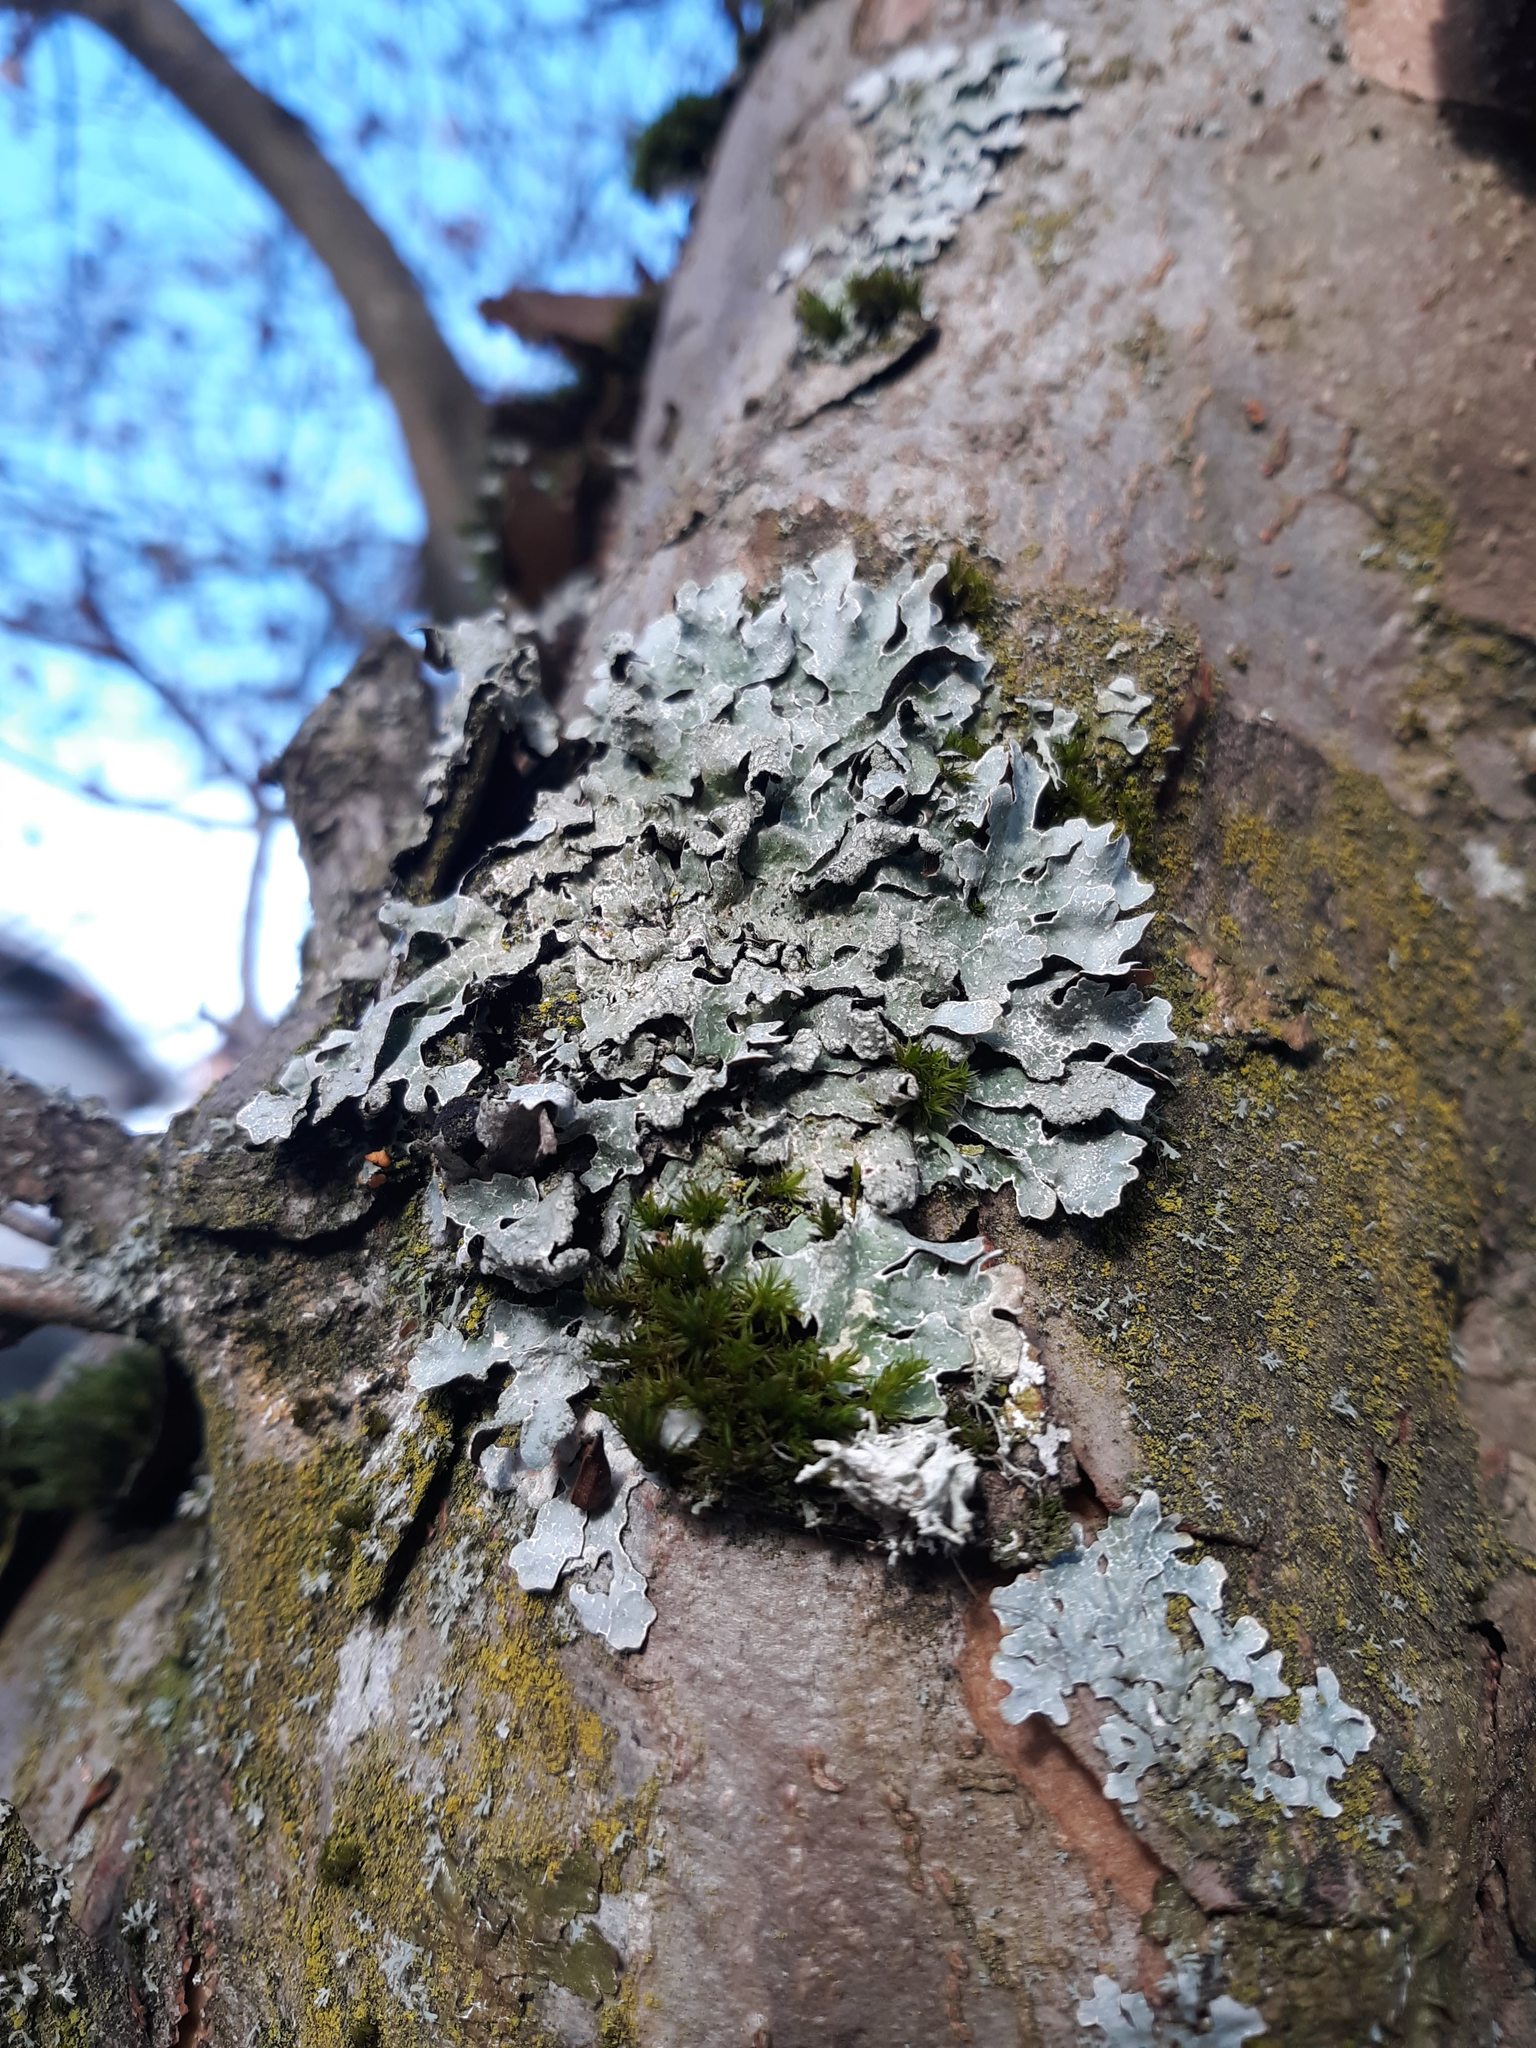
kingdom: Fungi
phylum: Ascomycota
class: Lecanoromycetes
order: Lecanorales
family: Parmeliaceae
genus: Parmelia
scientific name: Parmelia sulcata
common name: Netted shield lichen
